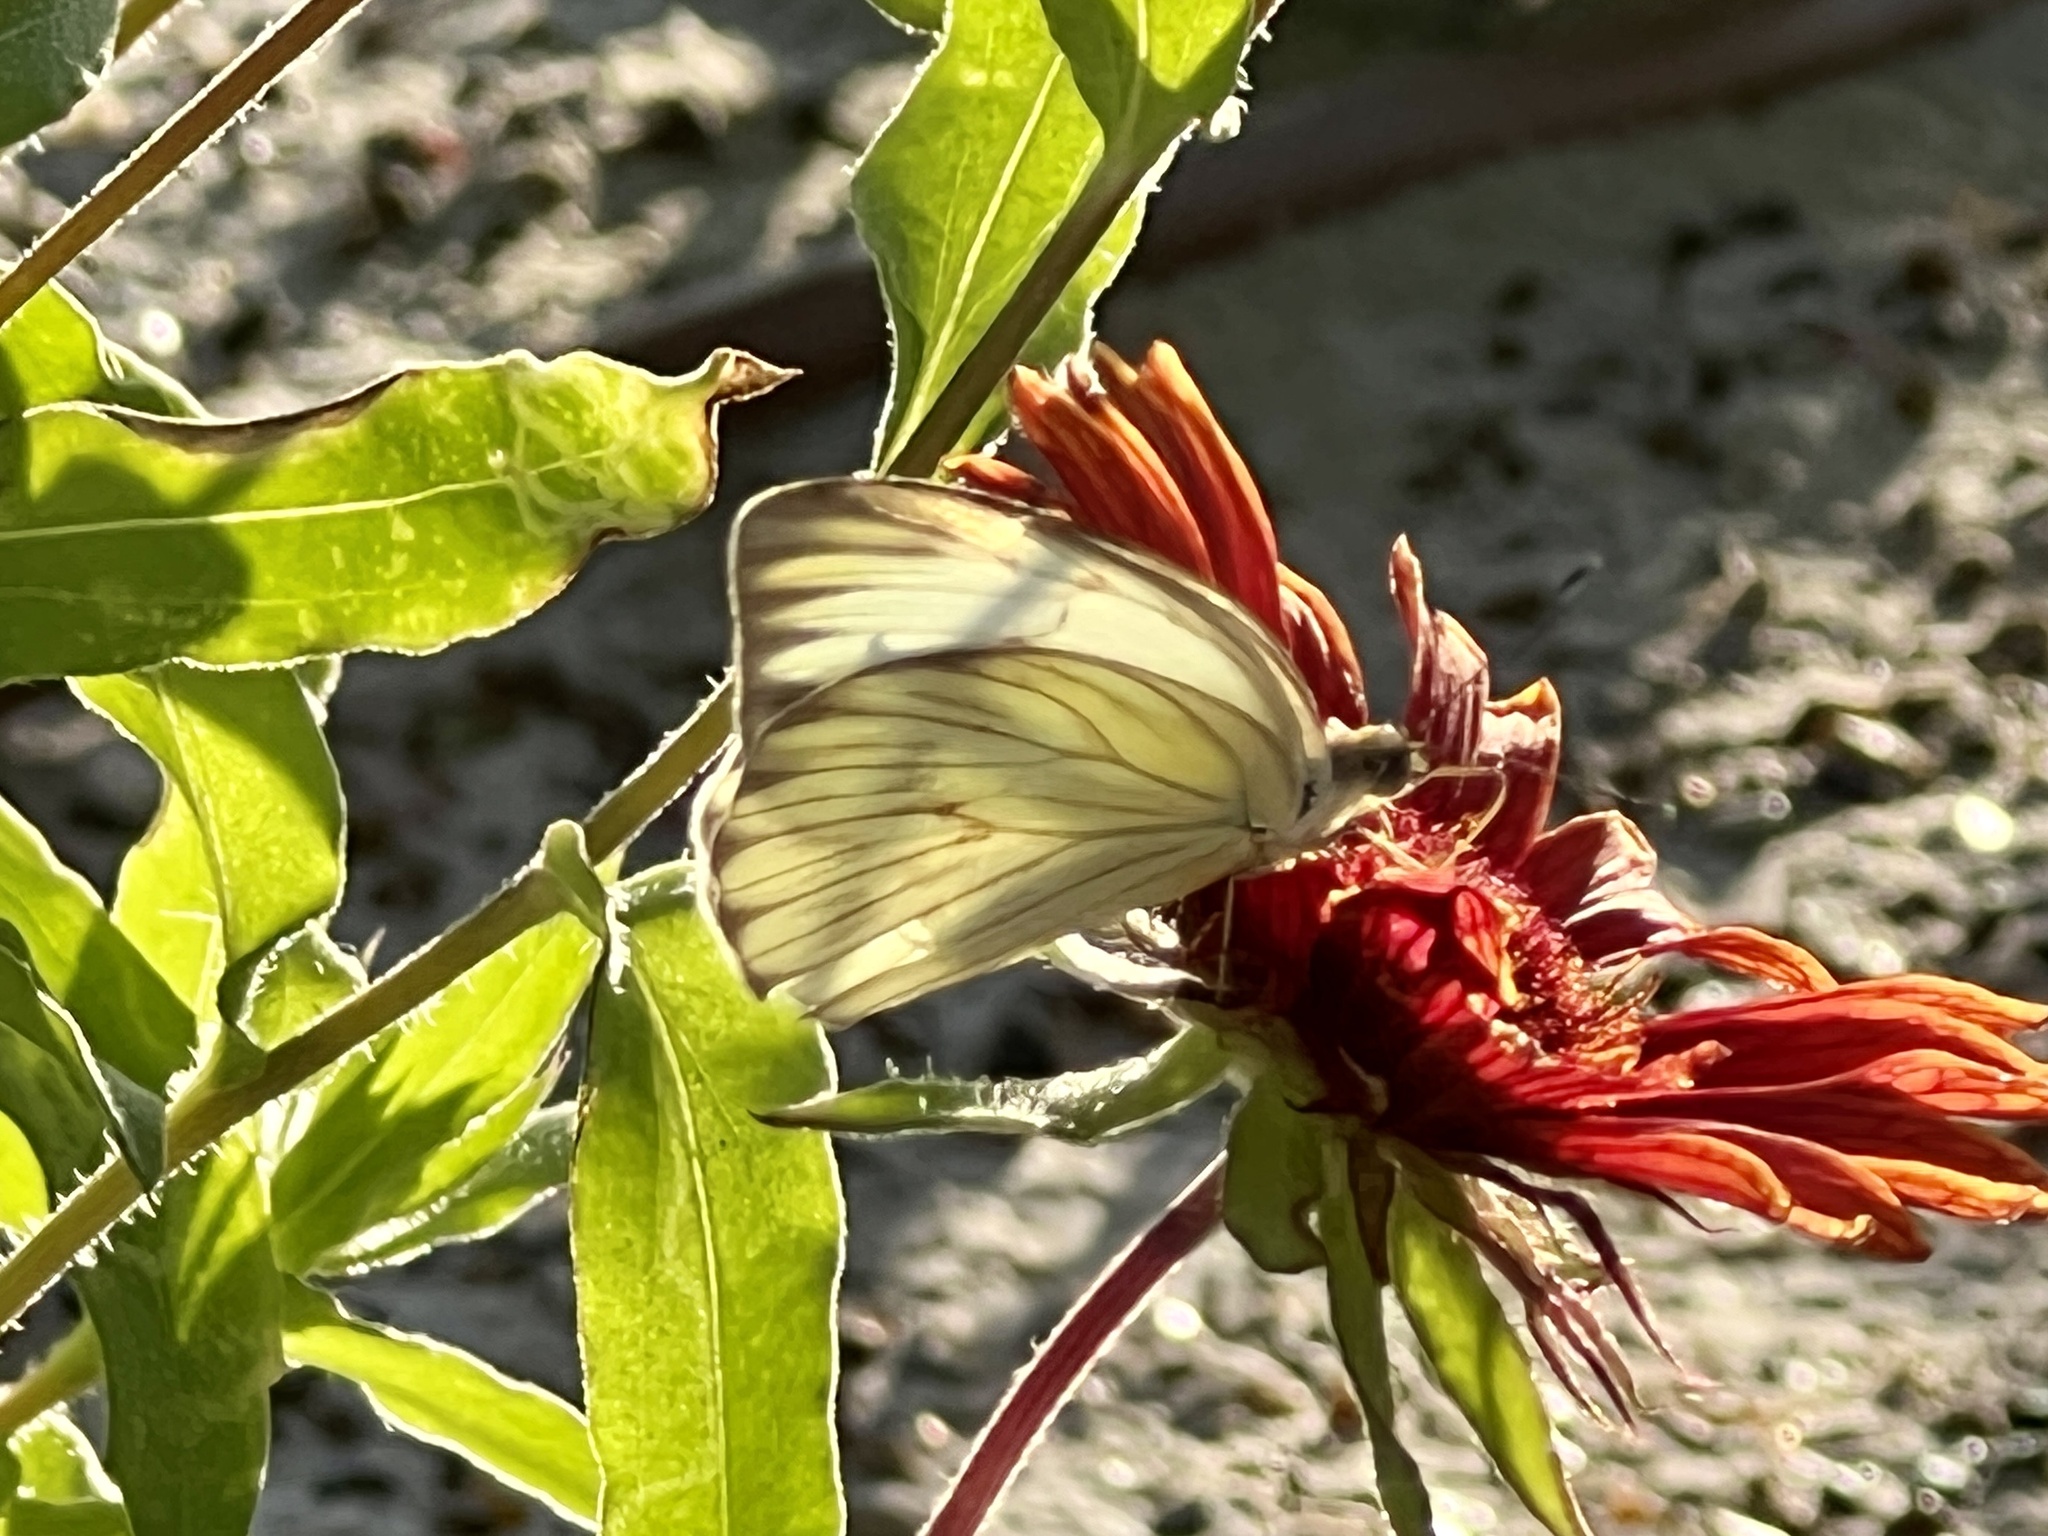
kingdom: Animalia
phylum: Arthropoda
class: Insecta
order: Lepidoptera
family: Pieridae
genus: Ascia
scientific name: Ascia monuste
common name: Great southern white
